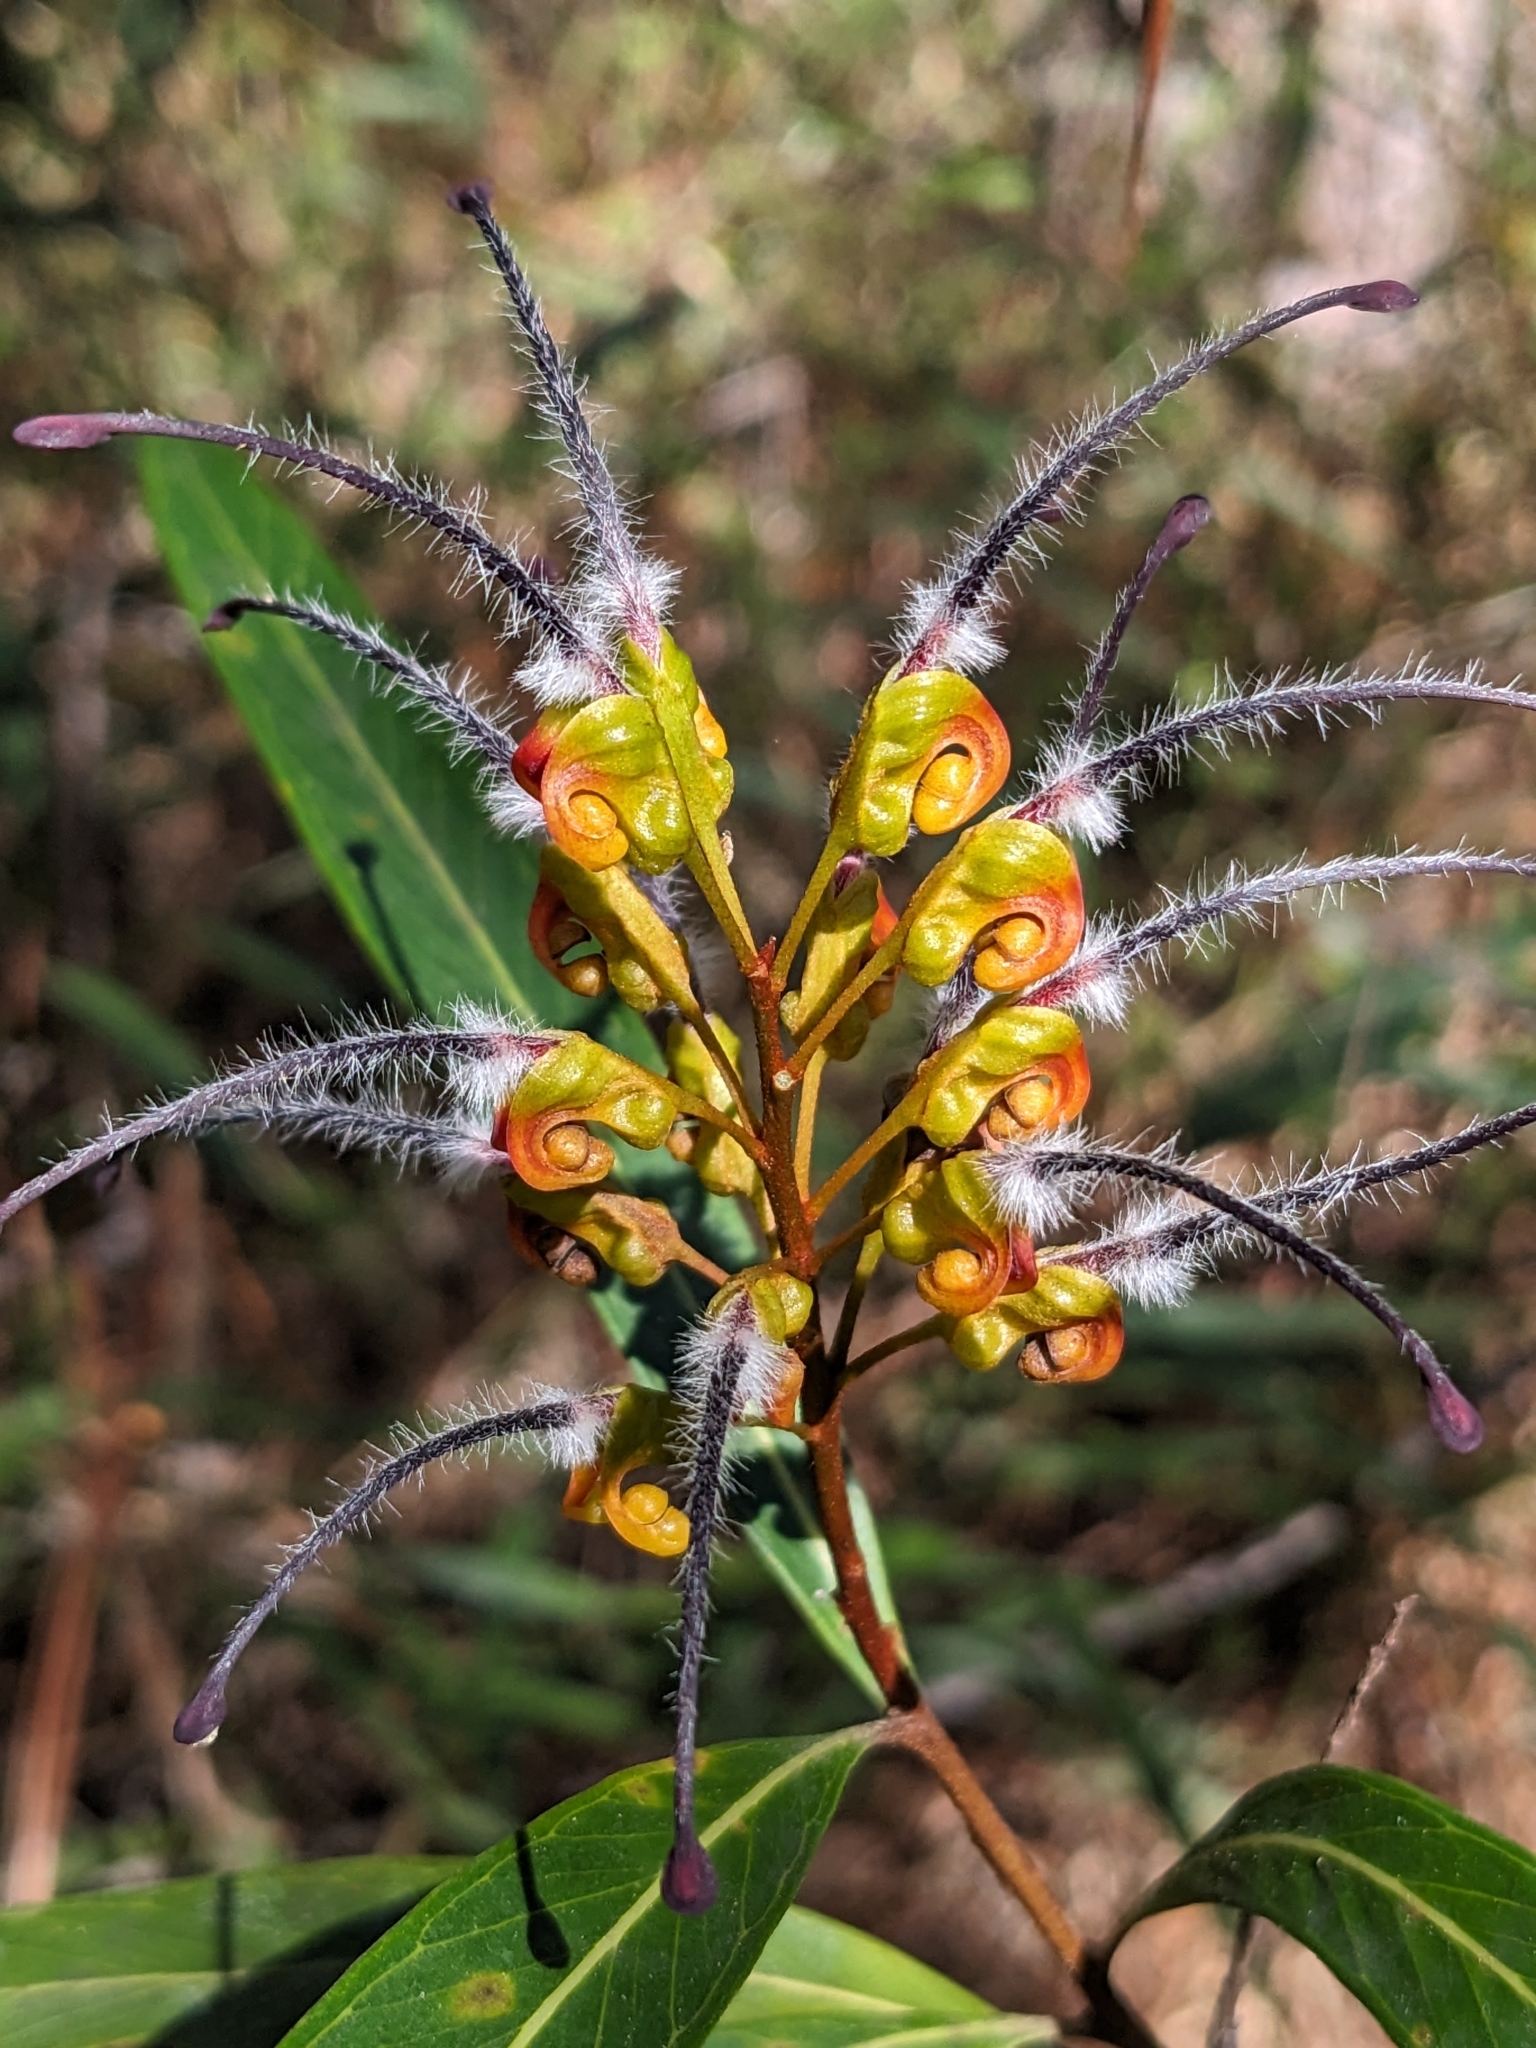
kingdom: Plantae
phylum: Tracheophyta
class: Magnoliopsida
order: Proteales
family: Proteaceae
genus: Grevillea
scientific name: Grevillea venusta
